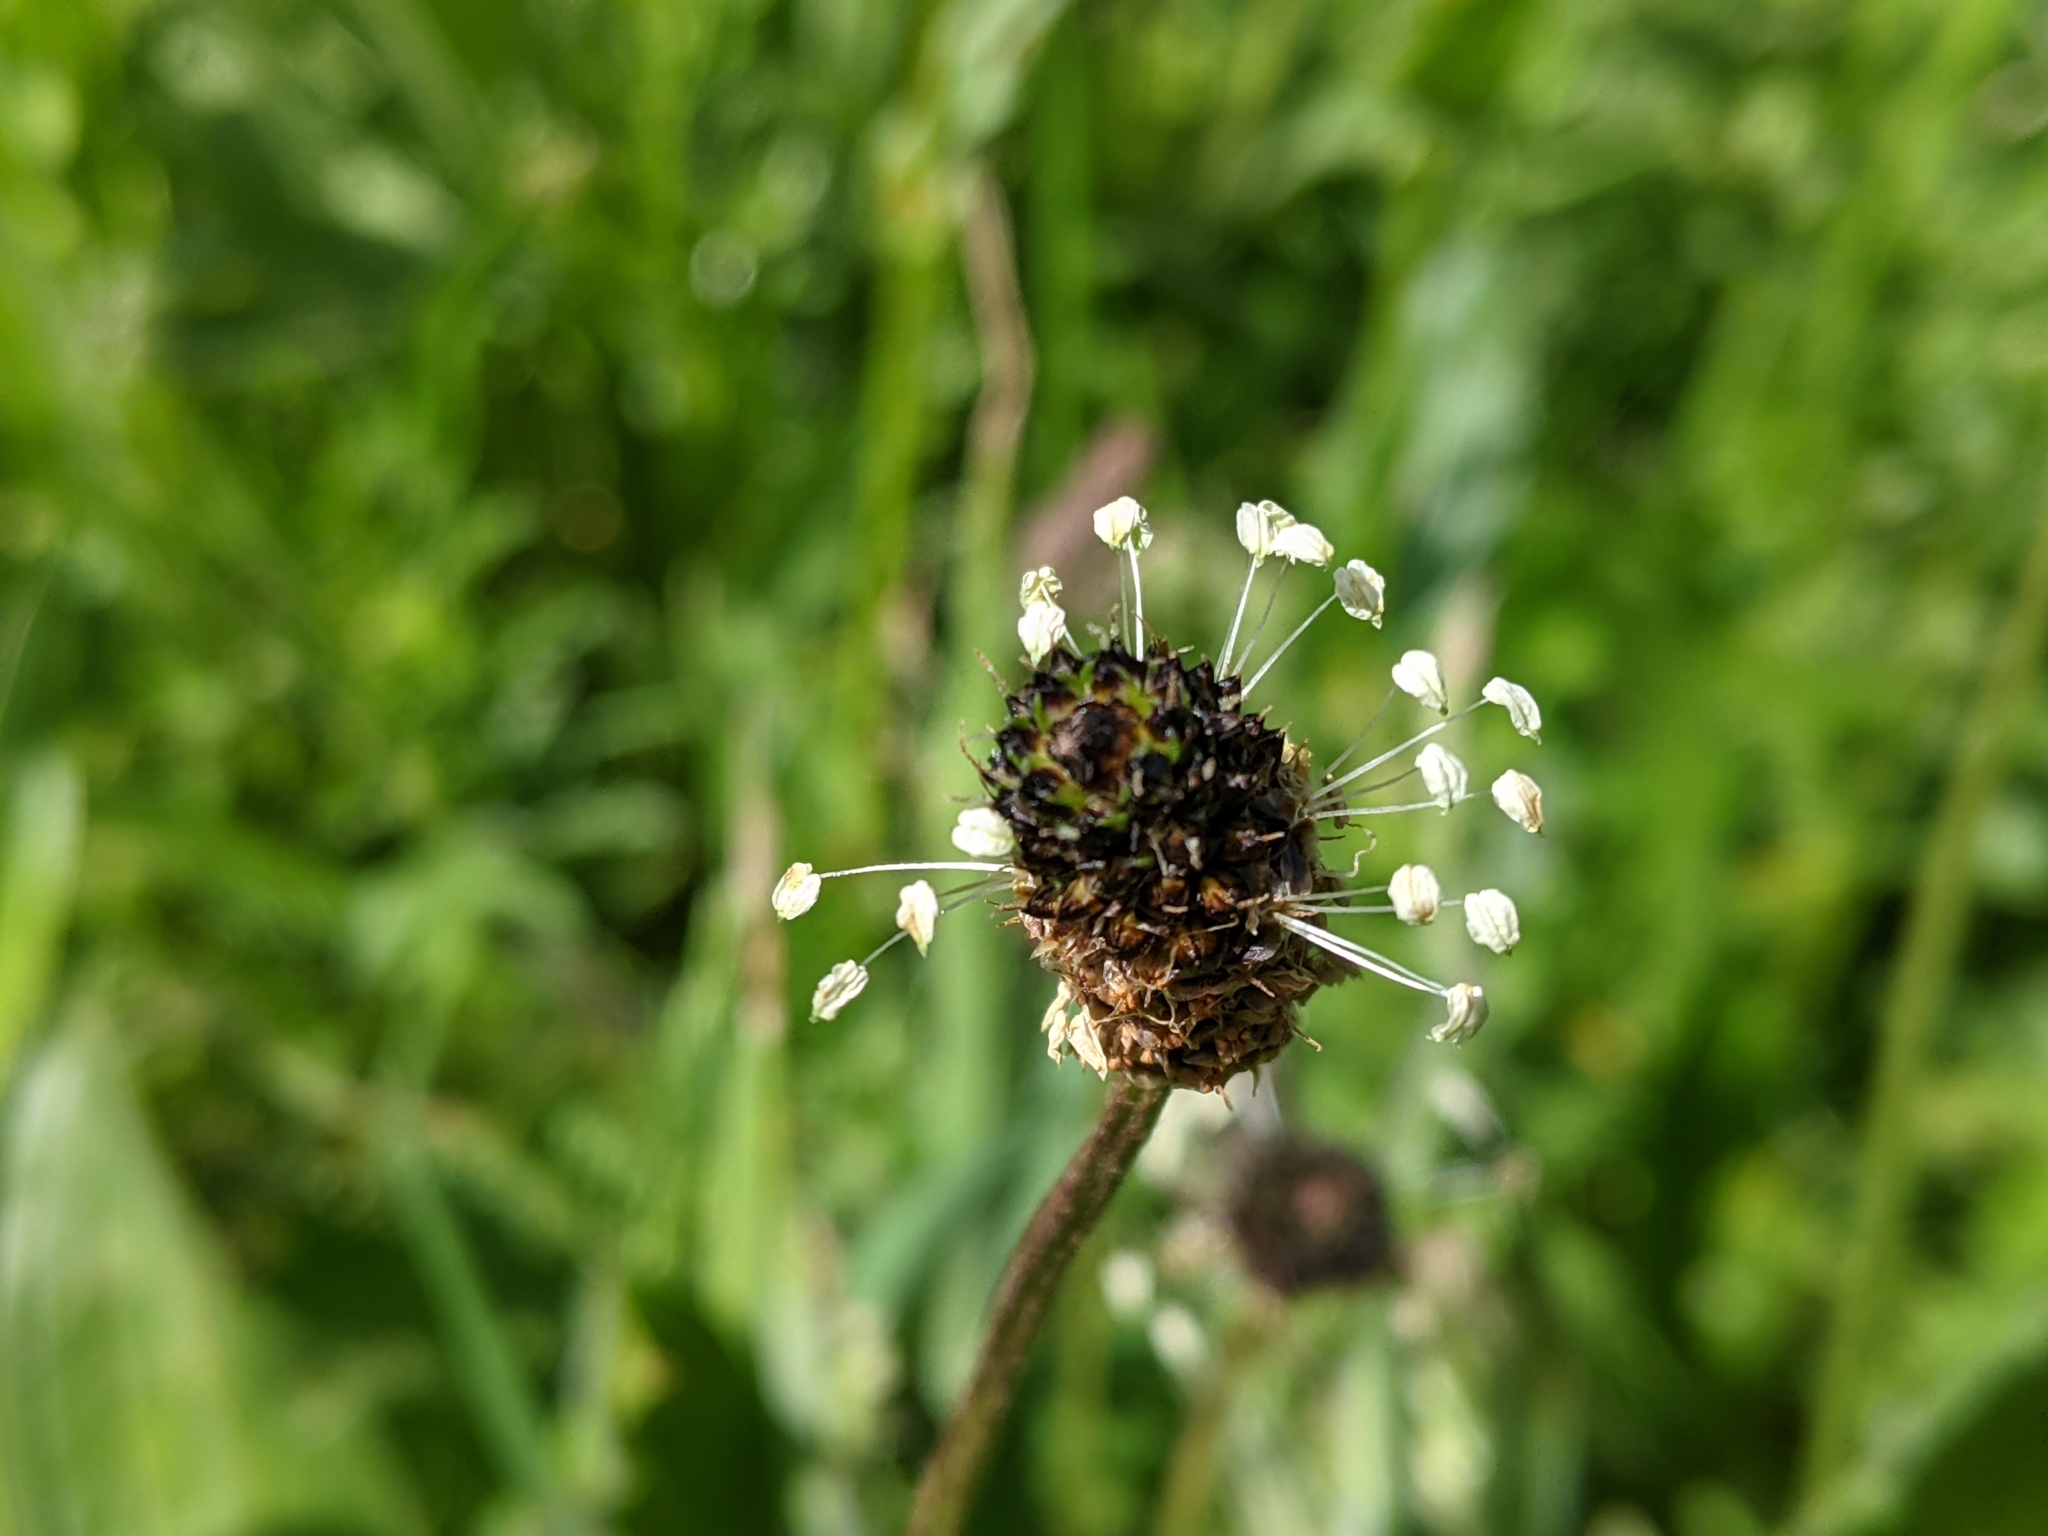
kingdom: Plantae
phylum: Tracheophyta
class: Magnoliopsida
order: Lamiales
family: Plantaginaceae
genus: Plantago
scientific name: Plantago lanceolata
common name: Ribwort plantain
